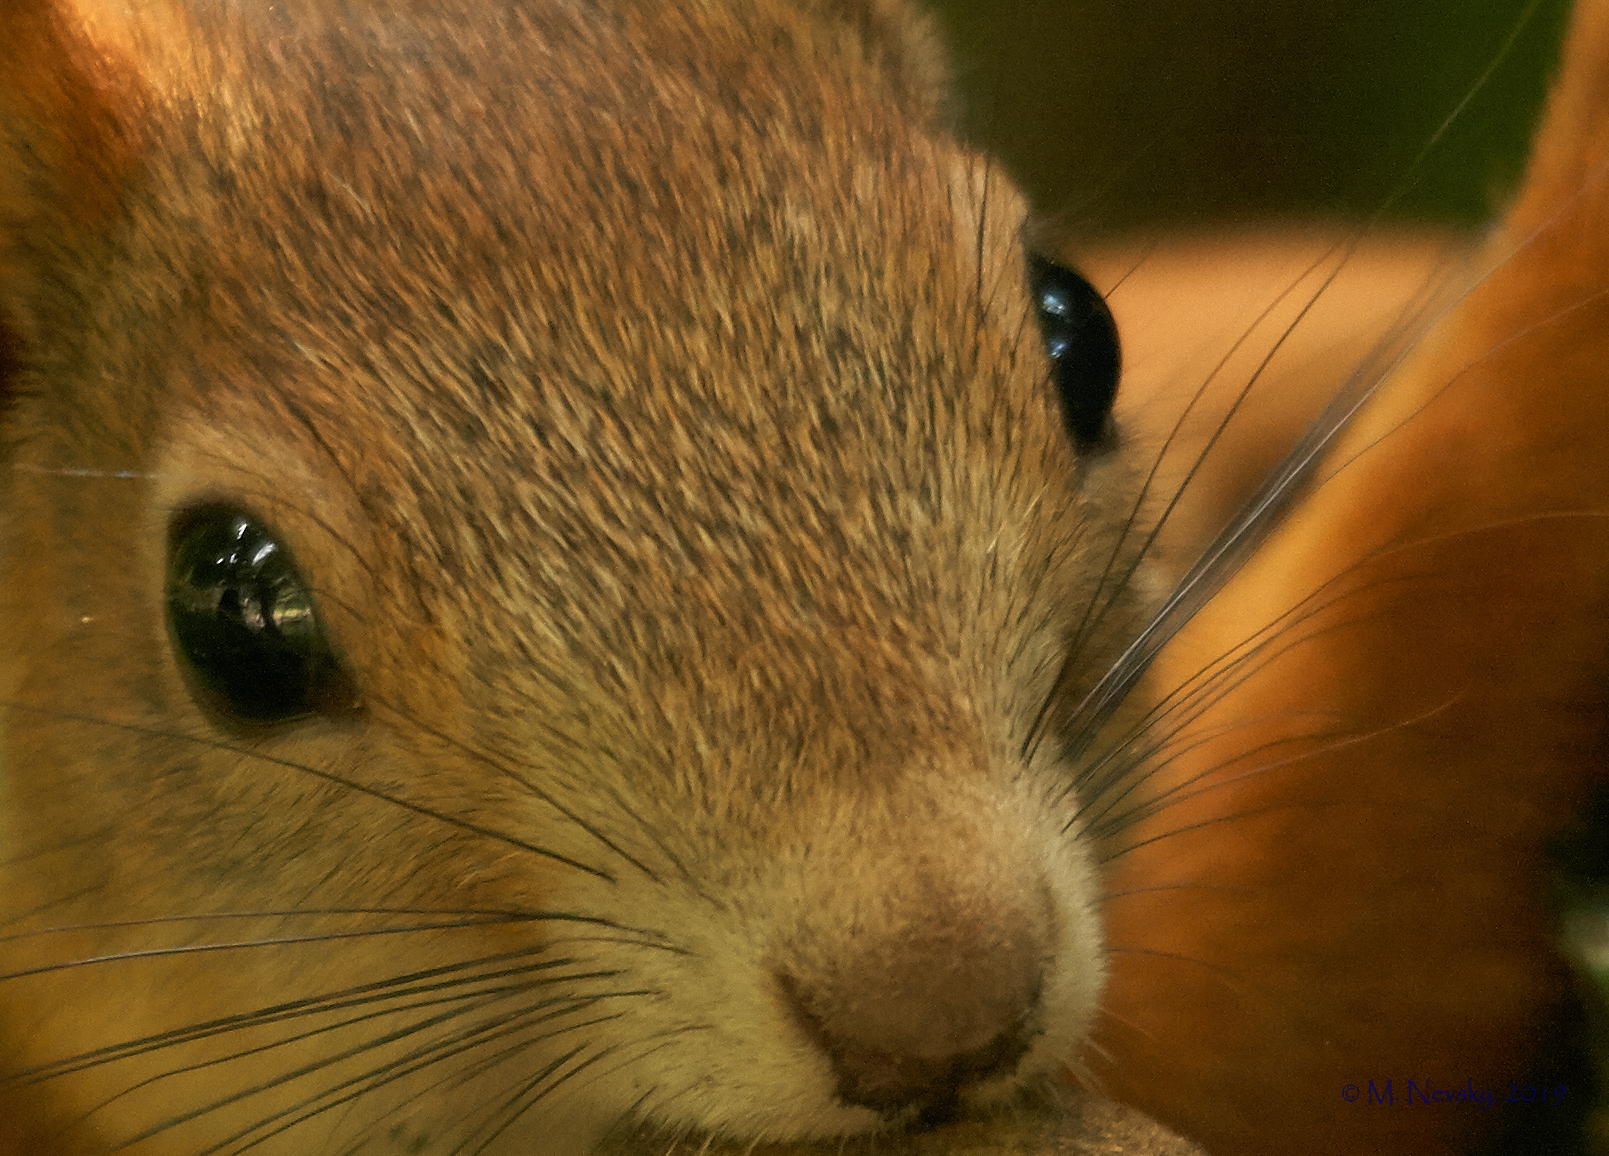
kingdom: Animalia
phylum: Chordata
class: Mammalia
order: Rodentia
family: Sciuridae
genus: Sciurus
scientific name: Sciurus vulgaris
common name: Eurasian red squirrel
